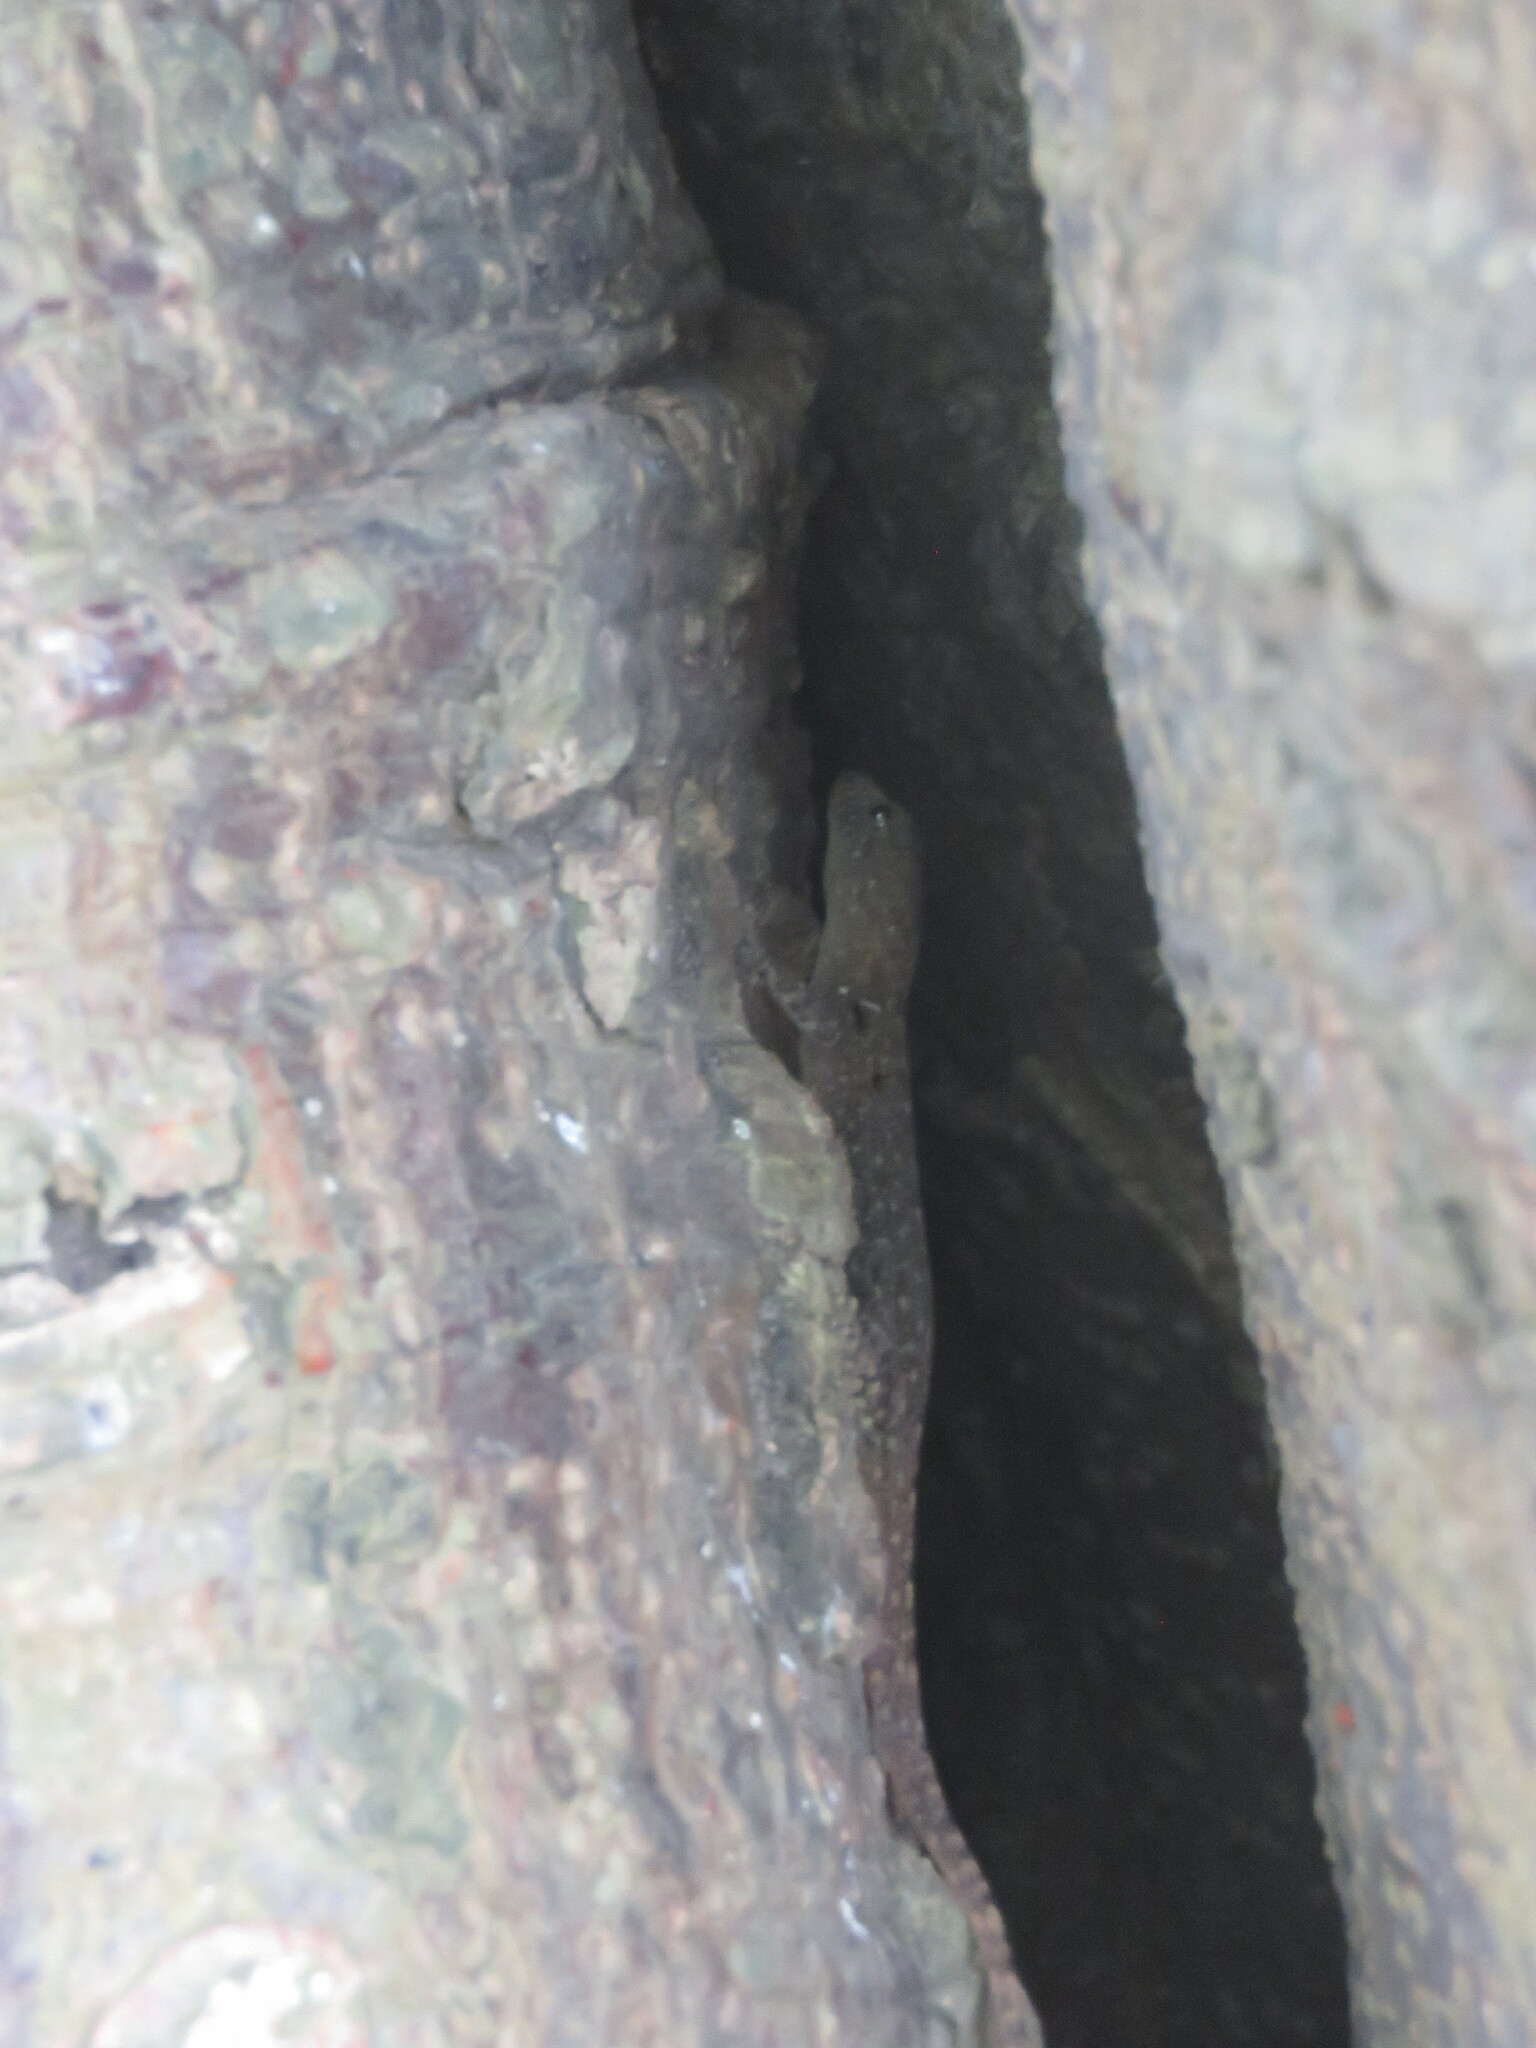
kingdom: Animalia
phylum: Chordata
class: Squamata
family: Sphaerodactylidae
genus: Gonatodes
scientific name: Gonatodes albogularis
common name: Yellow-headed gecko
